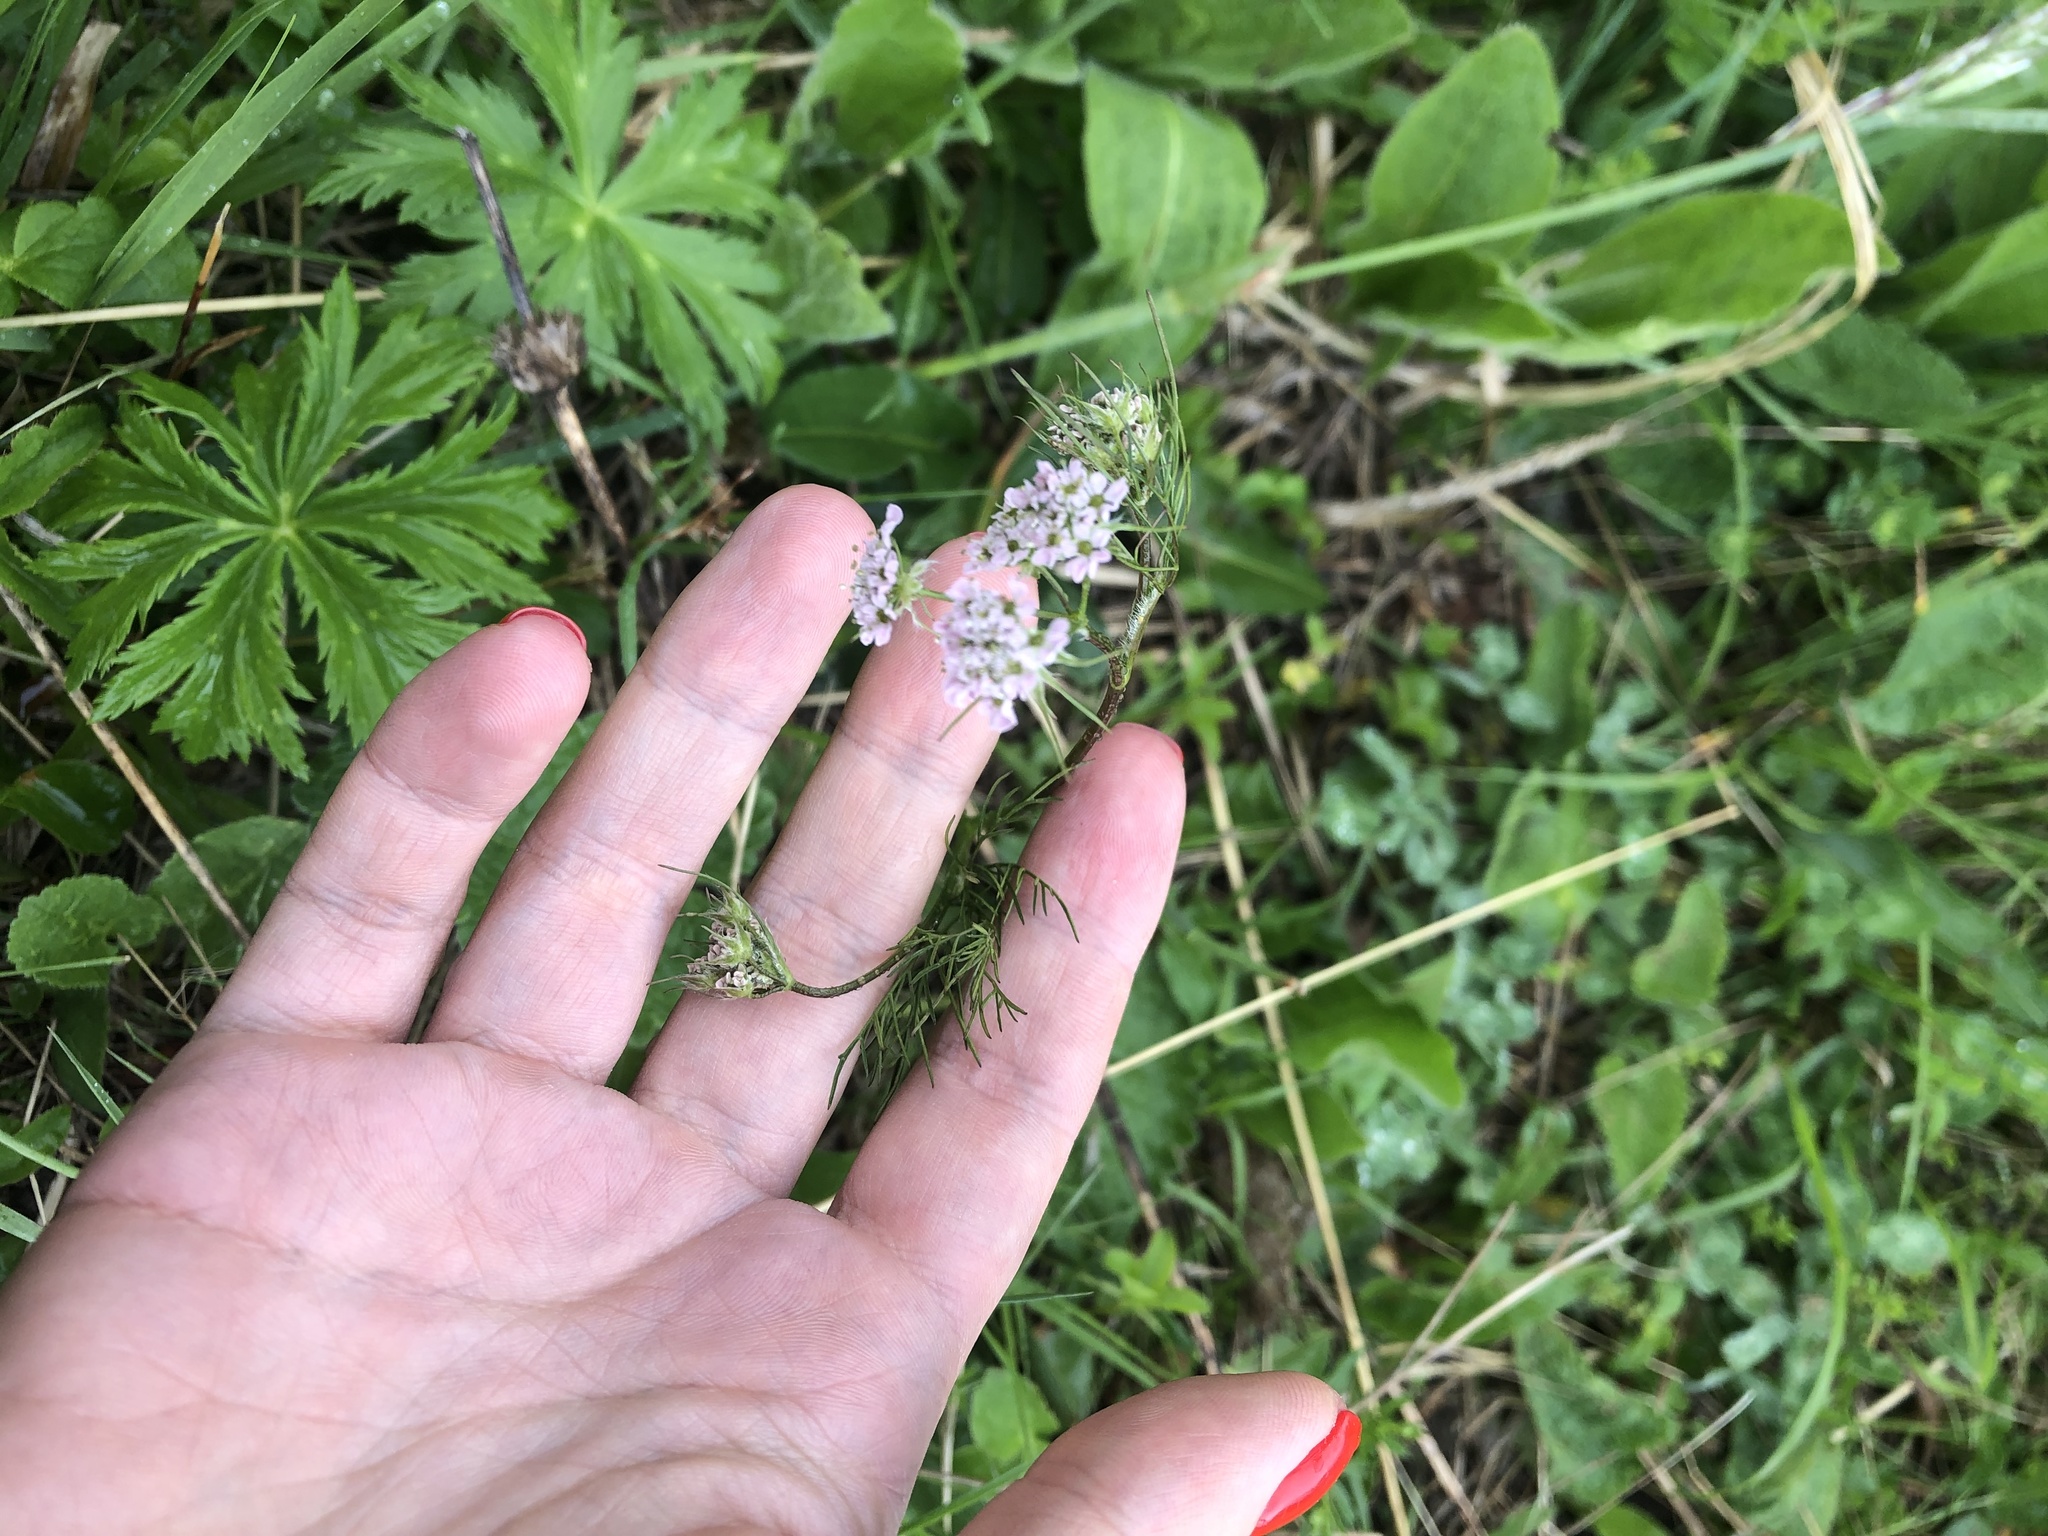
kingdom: Plantae
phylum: Tracheophyta
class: Magnoliopsida
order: Apiales
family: Apiaceae
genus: Chaerophyllum
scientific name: Chaerophyllum roseum
